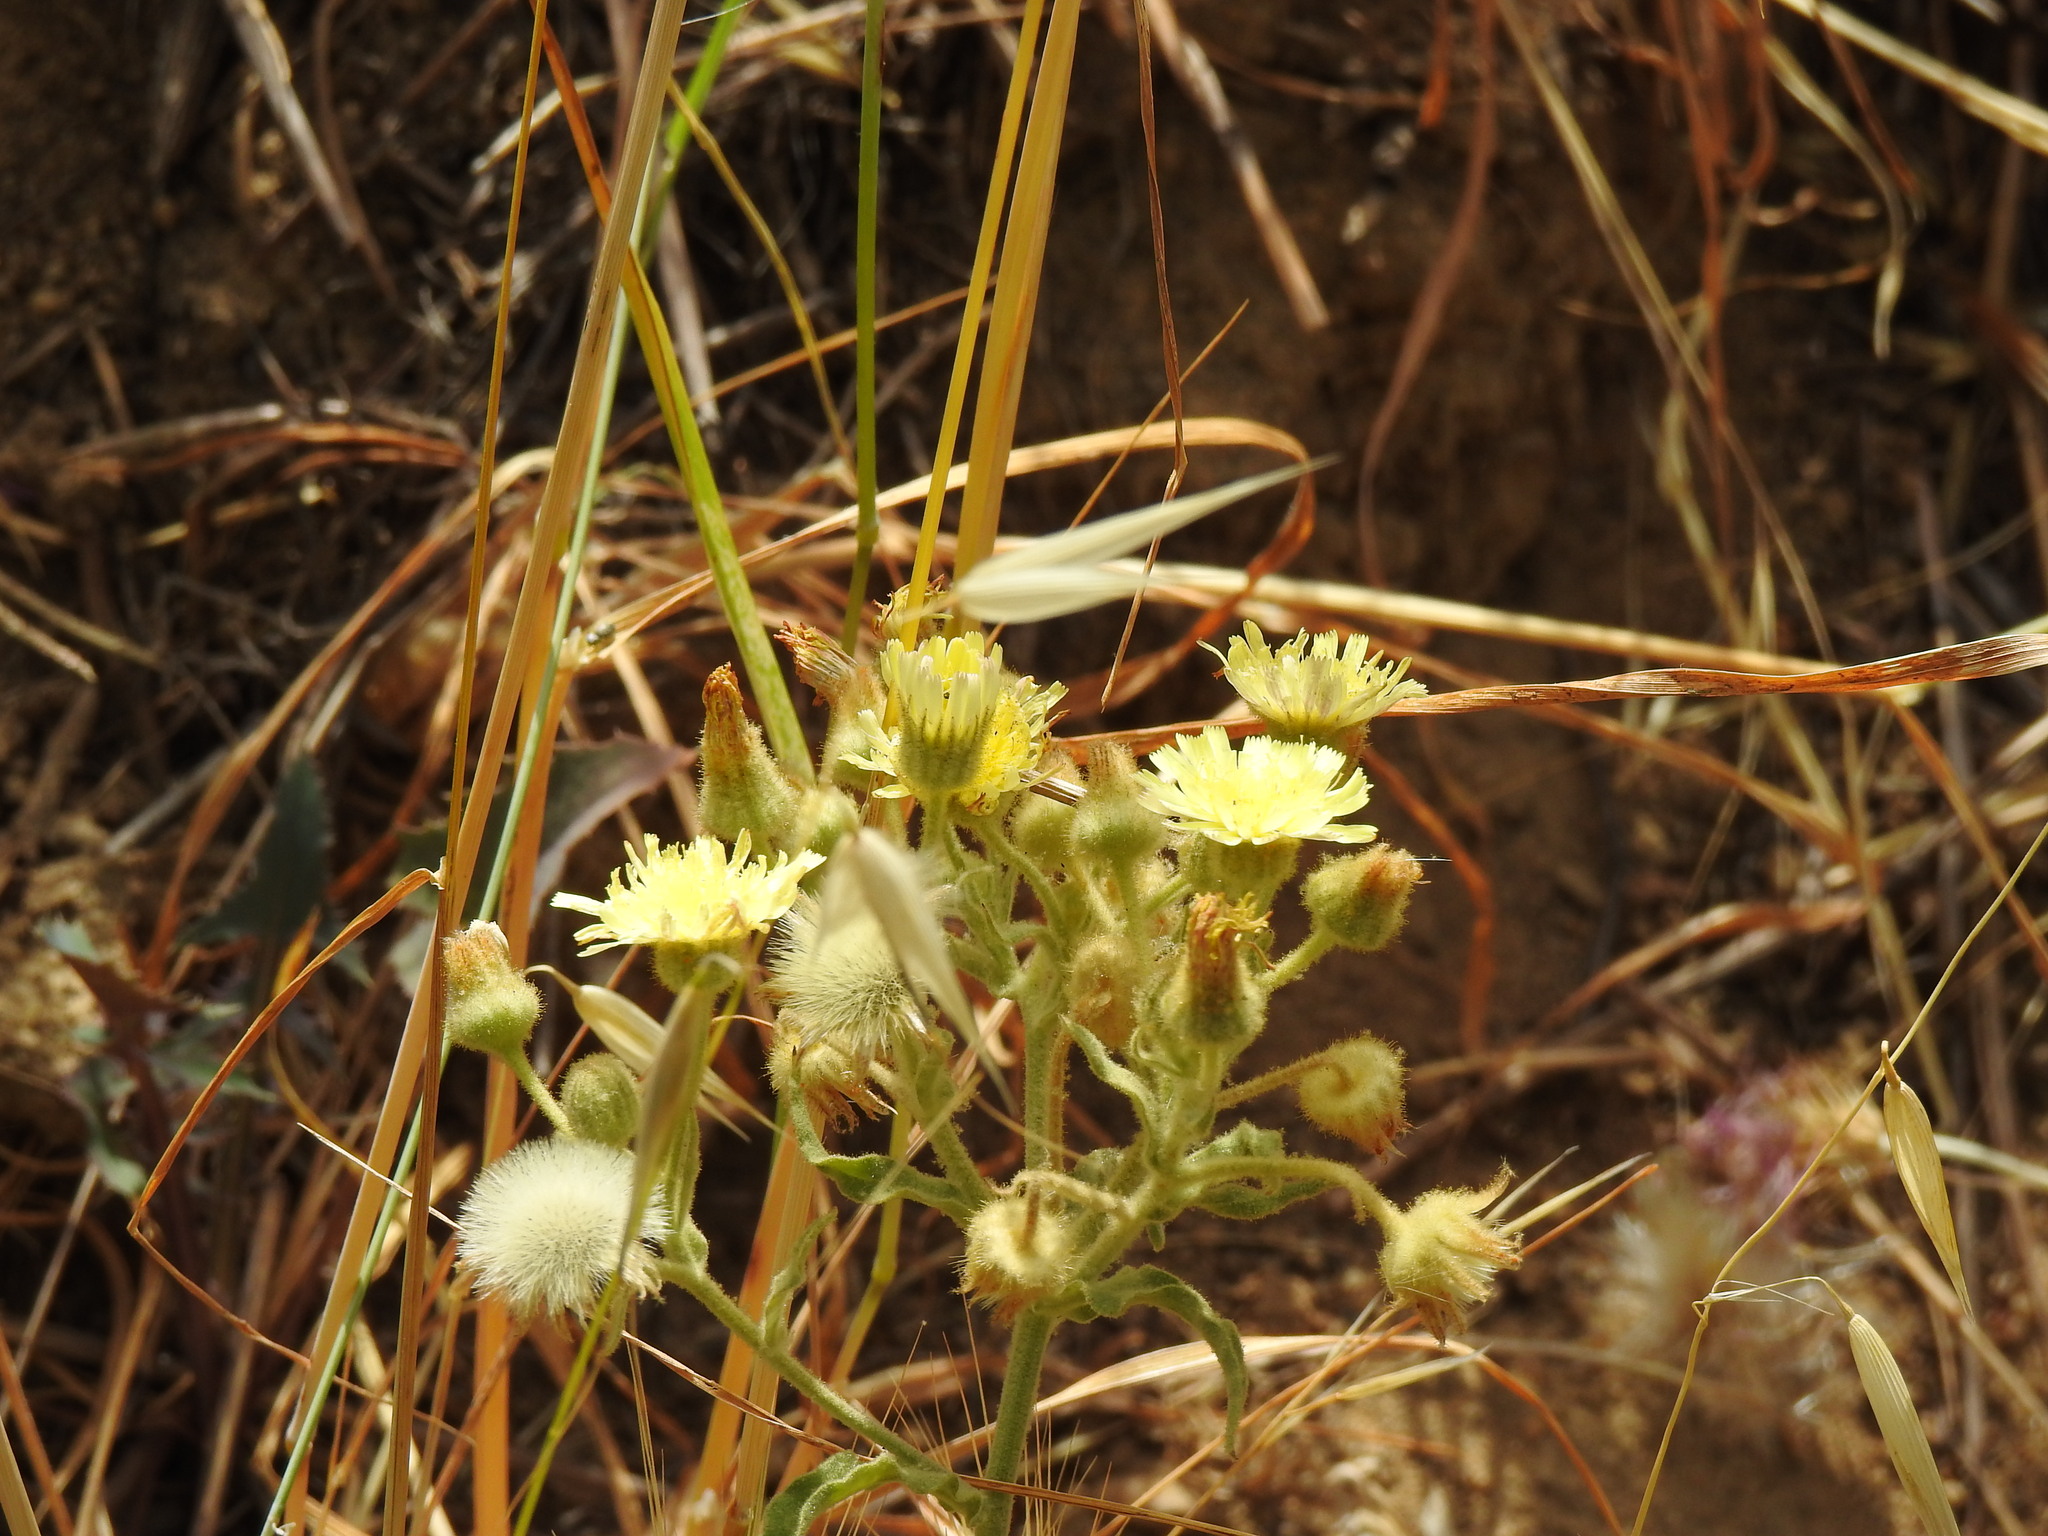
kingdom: Plantae
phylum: Tracheophyta
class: Magnoliopsida
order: Asterales
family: Asteraceae
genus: Andryala
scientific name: Andryala integrifolia
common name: Common andryala
